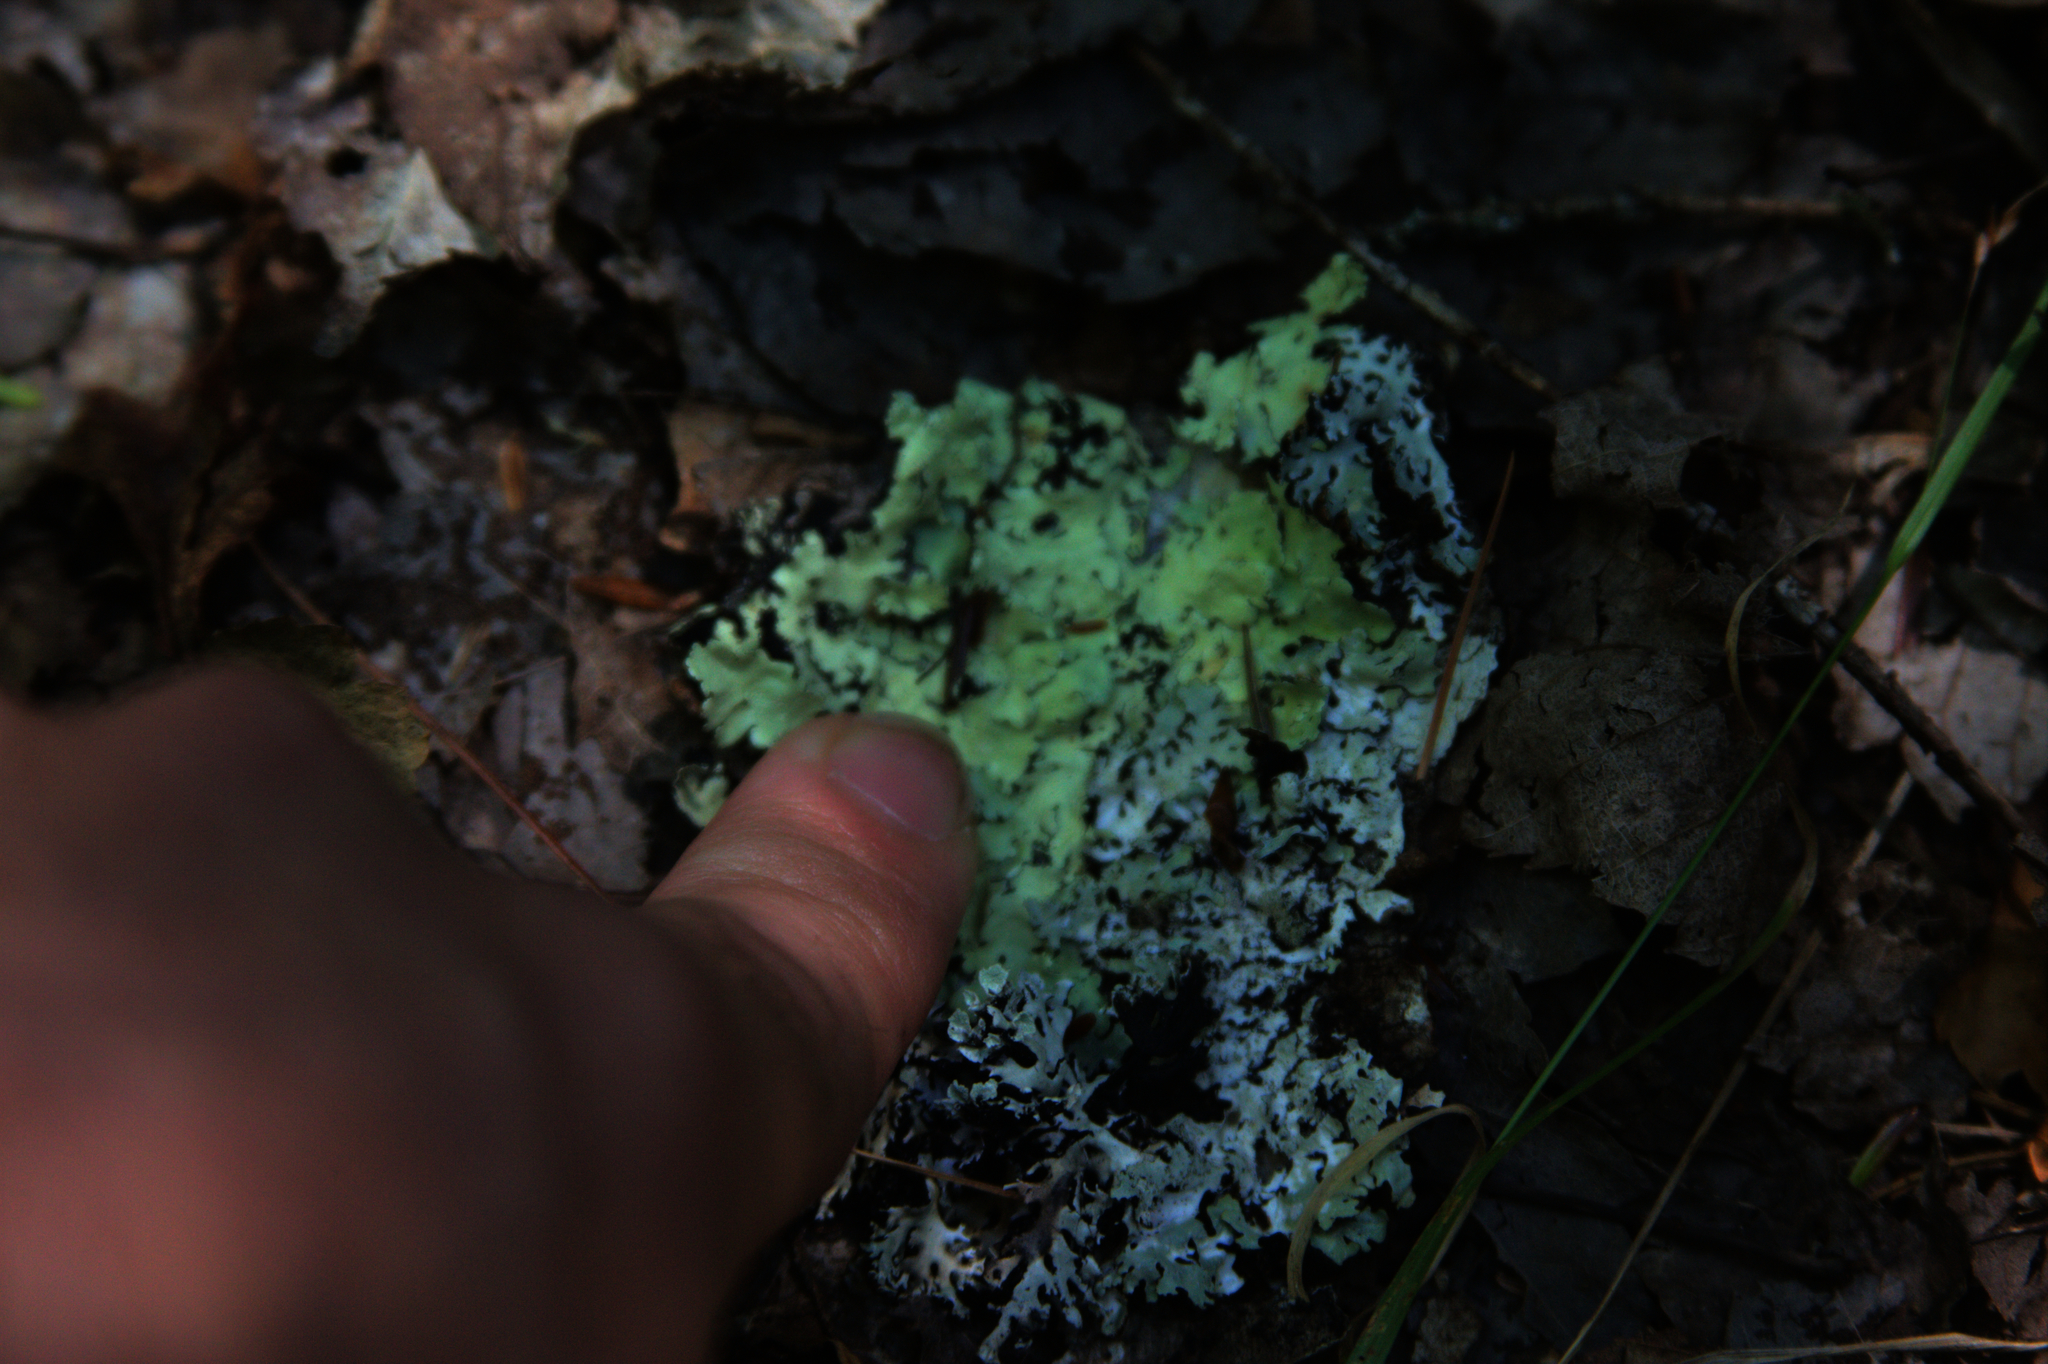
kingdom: Fungi
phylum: Ascomycota
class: Lecanoromycetes
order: Lecanorales
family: Parmeliaceae
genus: Flavoparmelia
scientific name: Flavoparmelia caperata
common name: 40-mile per hour lichen
